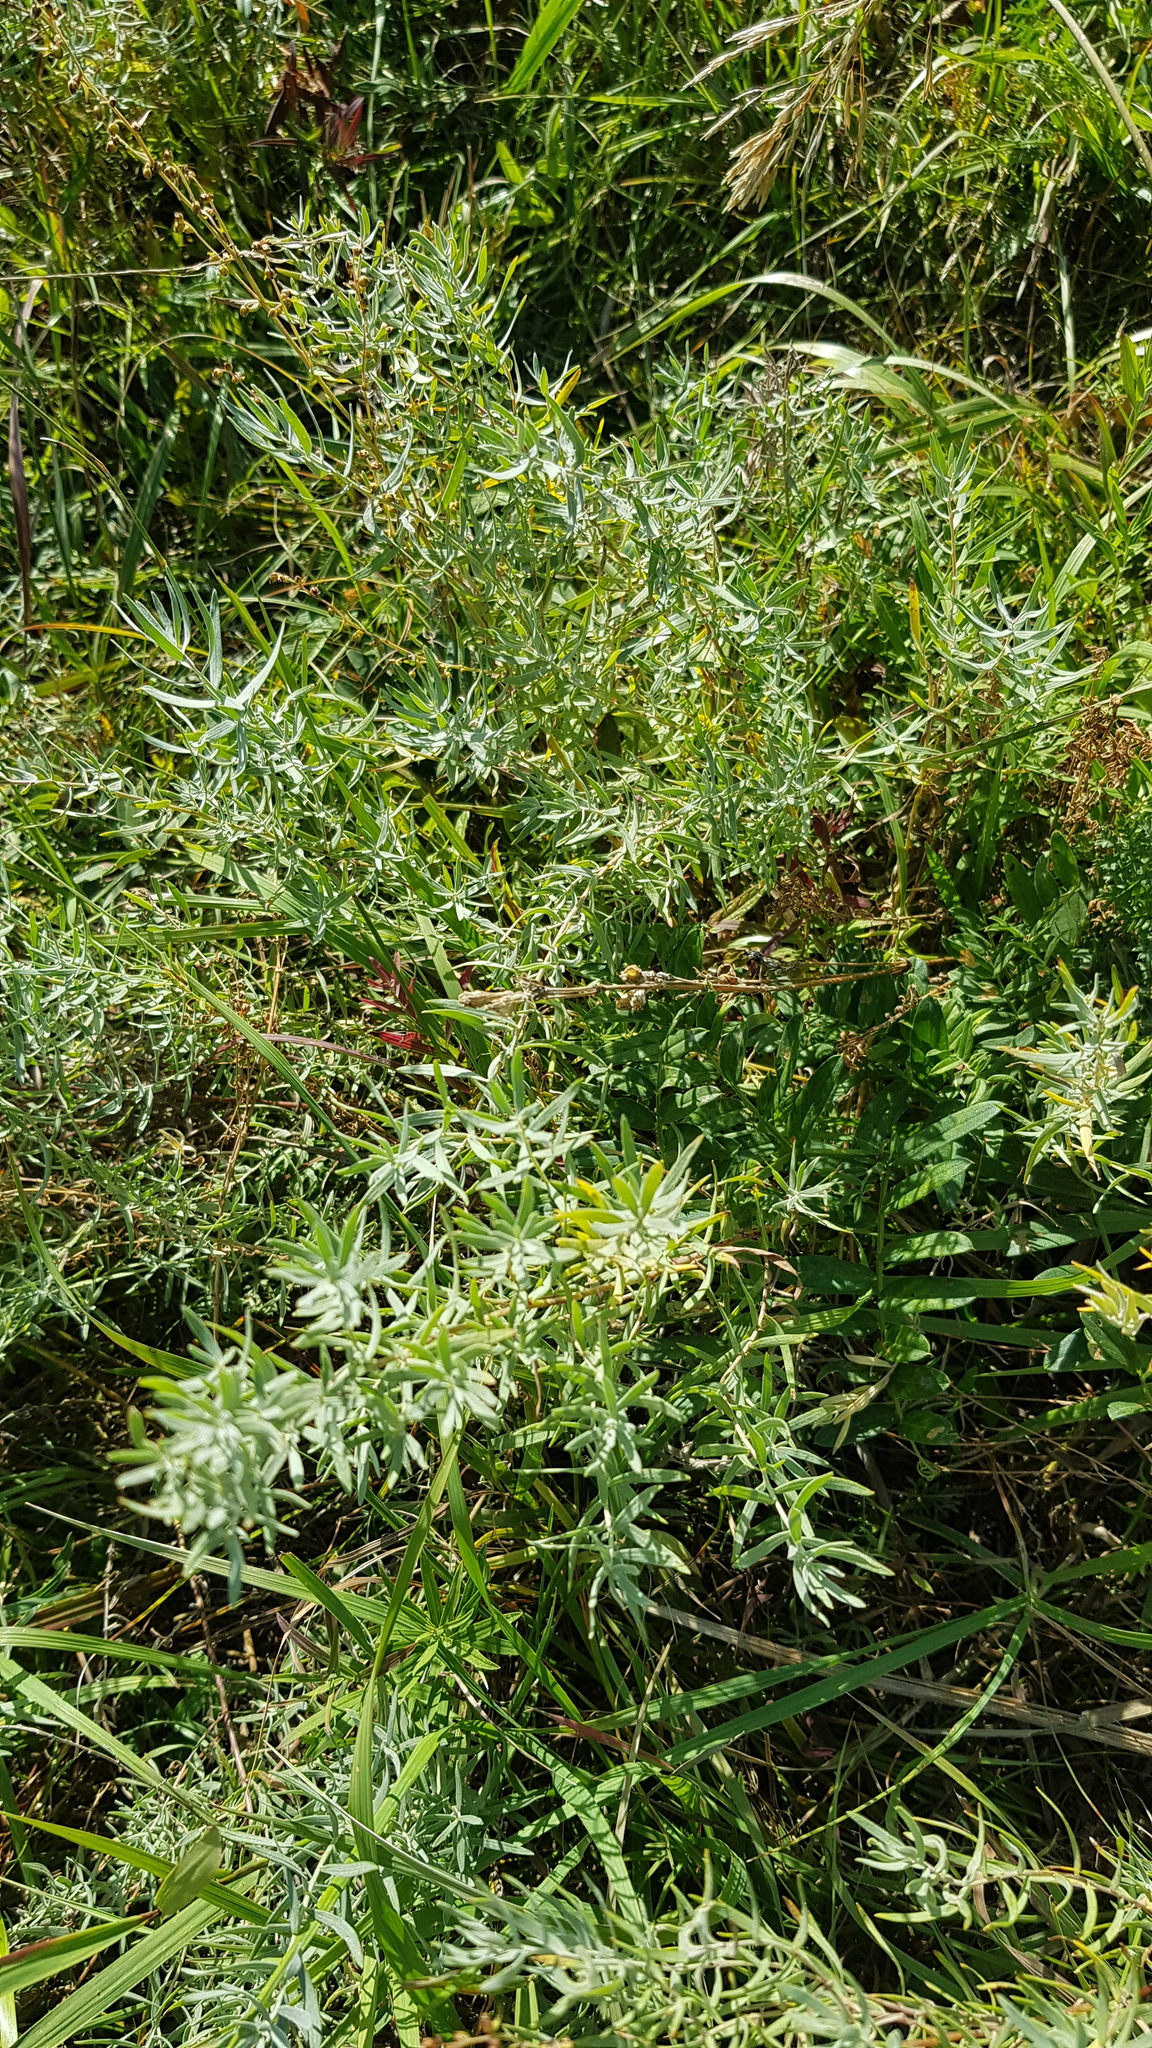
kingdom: Plantae
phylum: Tracheophyta
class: Magnoliopsida
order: Asterales
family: Asteraceae
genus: Artemisia
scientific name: Artemisia glauca
